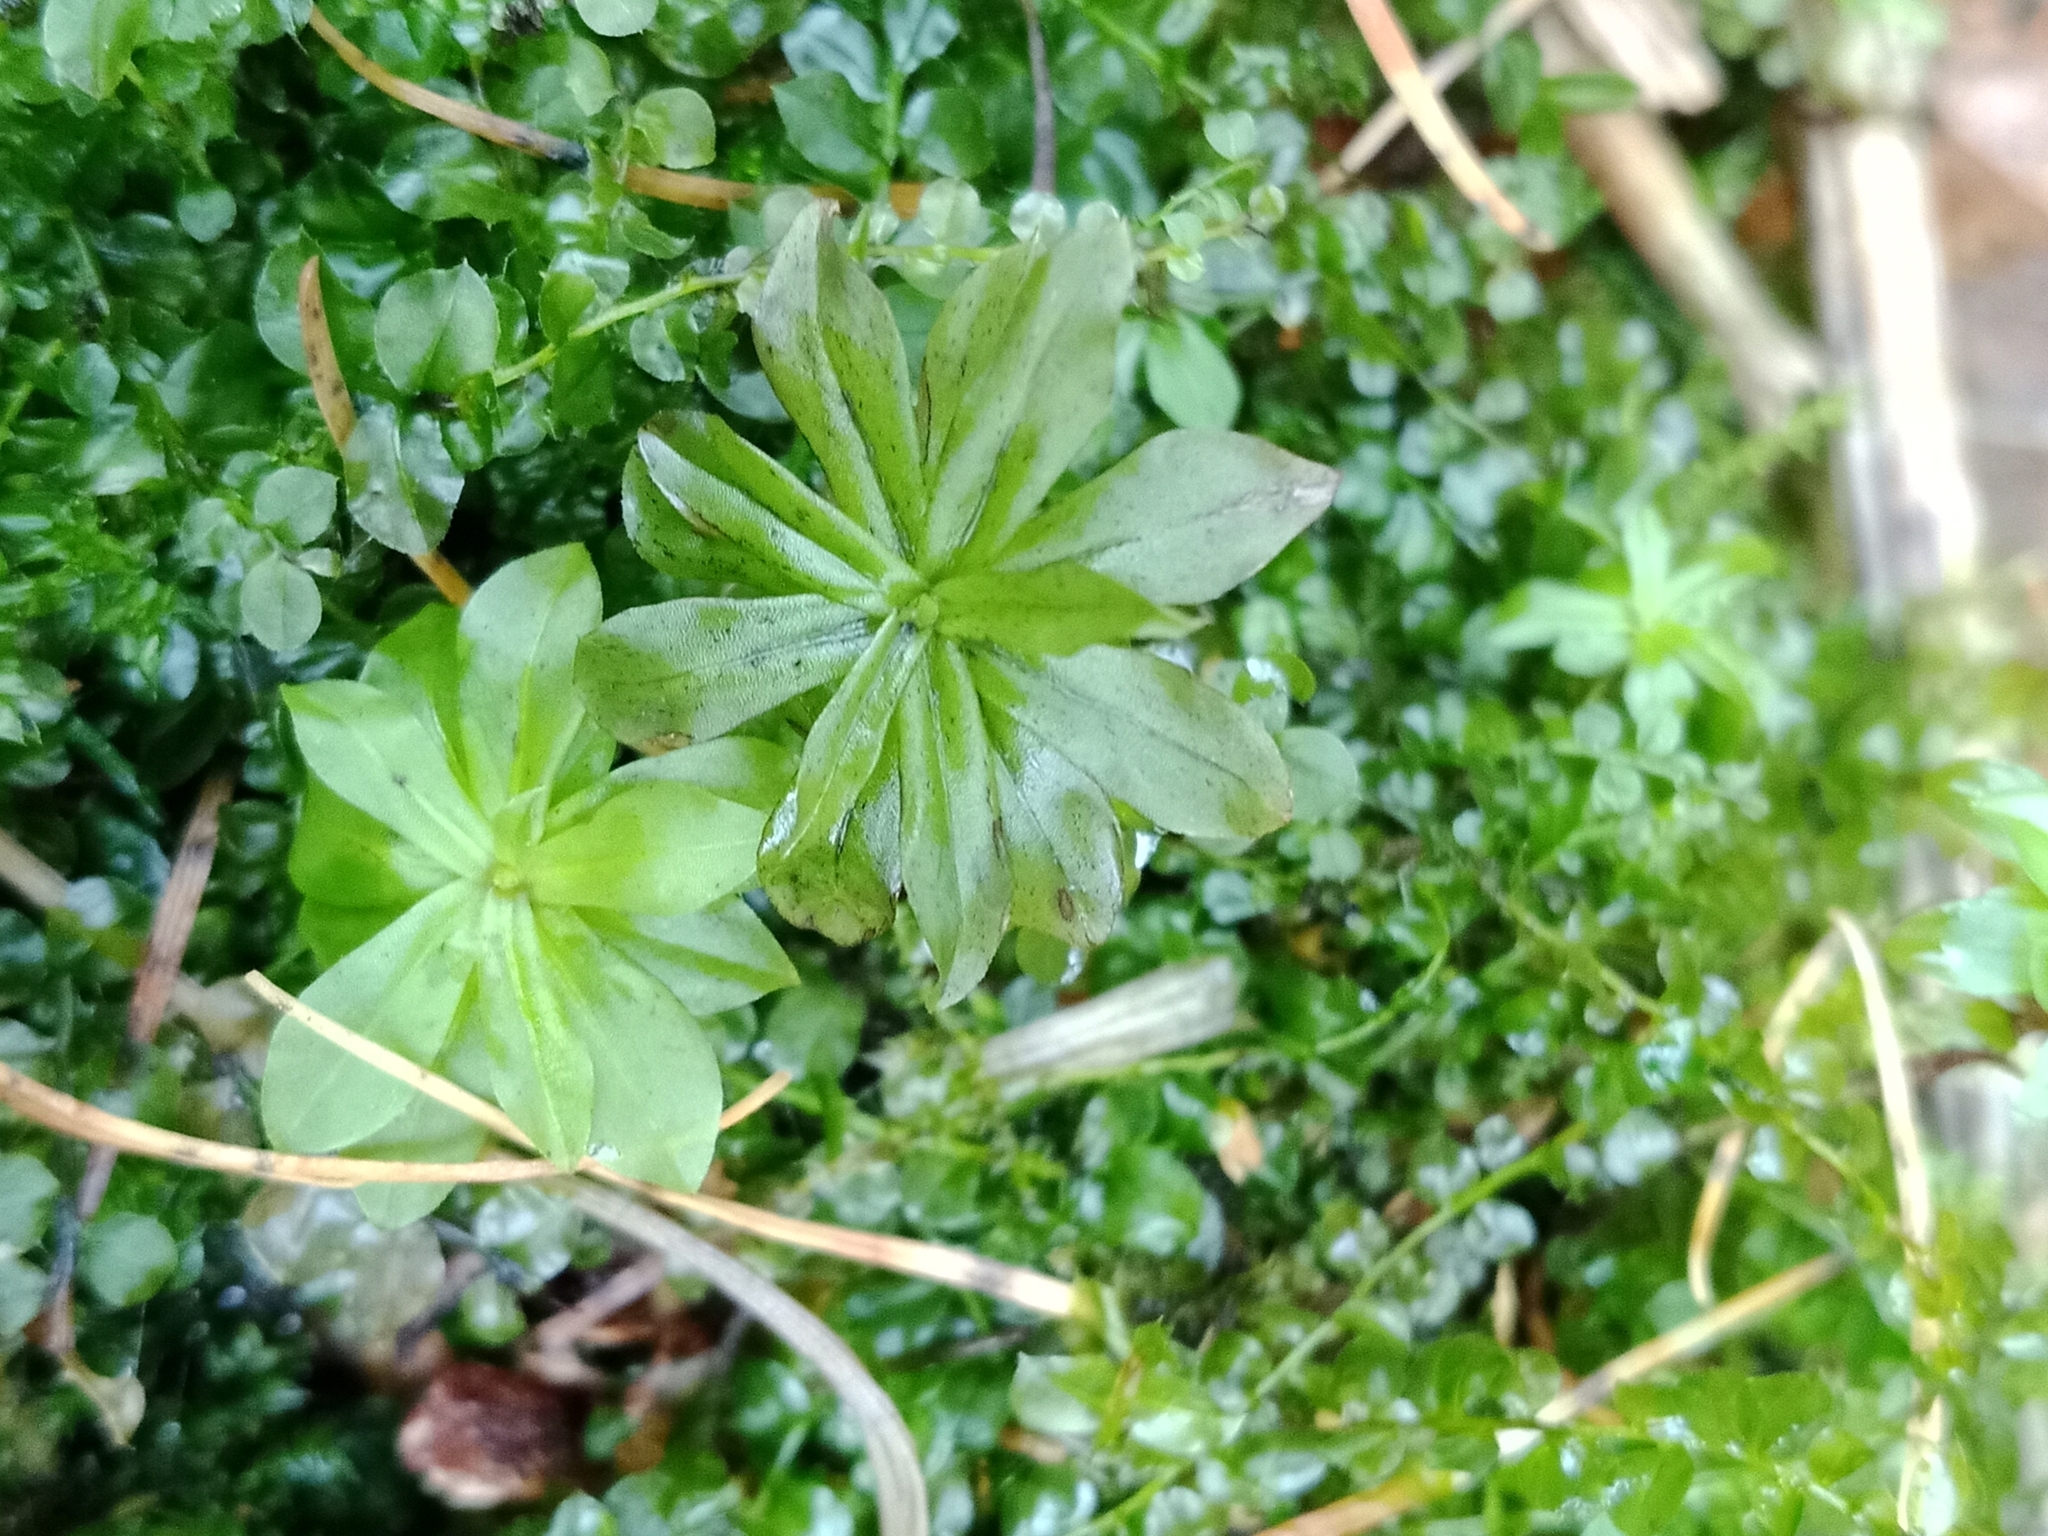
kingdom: Plantae
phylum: Bryophyta
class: Bryopsida
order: Bryales
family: Bryaceae
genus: Rhodobryum
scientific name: Rhodobryum roseum
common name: Rose-moss
